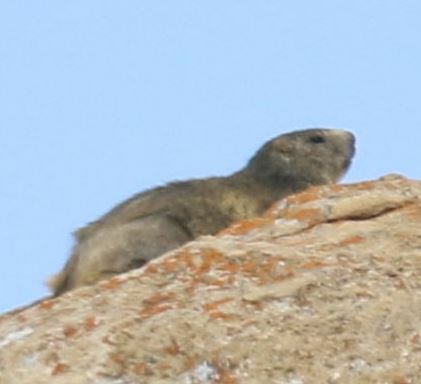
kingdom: Animalia
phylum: Chordata
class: Mammalia
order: Rodentia
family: Sciuridae
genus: Marmota
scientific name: Marmota marmota
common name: Alpine marmot
